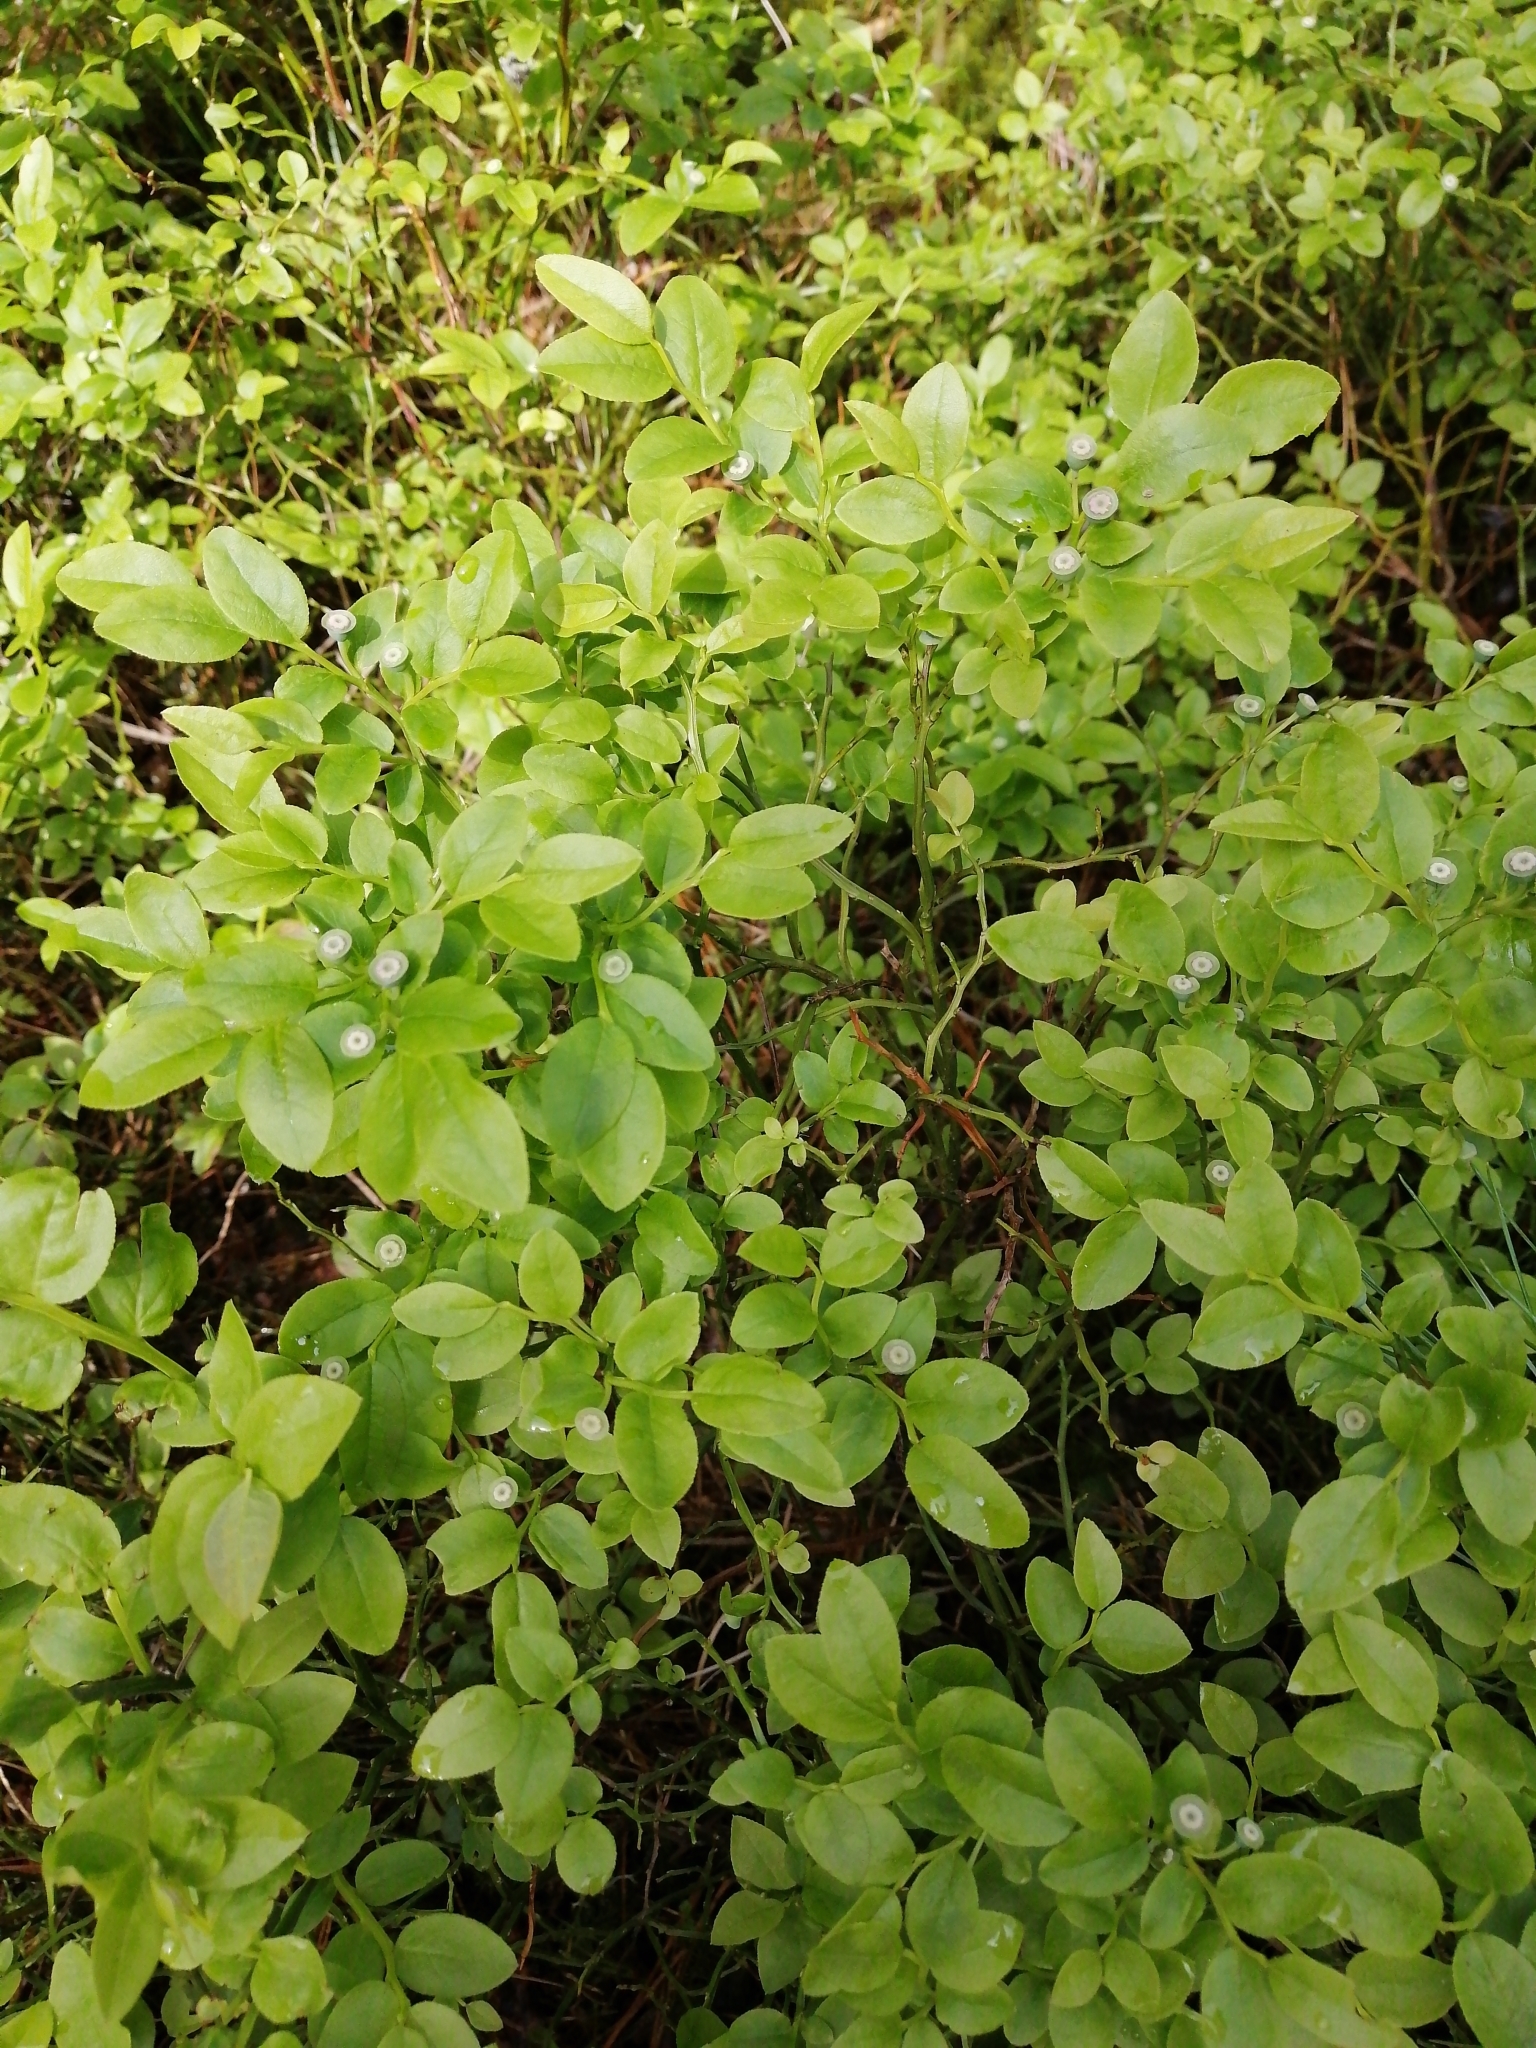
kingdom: Plantae
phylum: Tracheophyta
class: Magnoliopsida
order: Ericales
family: Ericaceae
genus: Vaccinium
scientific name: Vaccinium myrtillus
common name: Bilberry
